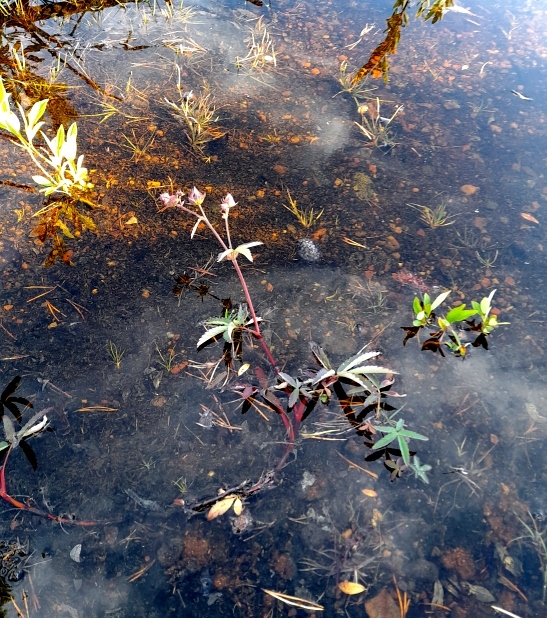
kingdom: Plantae
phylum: Tracheophyta
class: Magnoliopsida
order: Rosales
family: Rosaceae
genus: Comarum
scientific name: Comarum palustre
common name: Marsh cinquefoil
